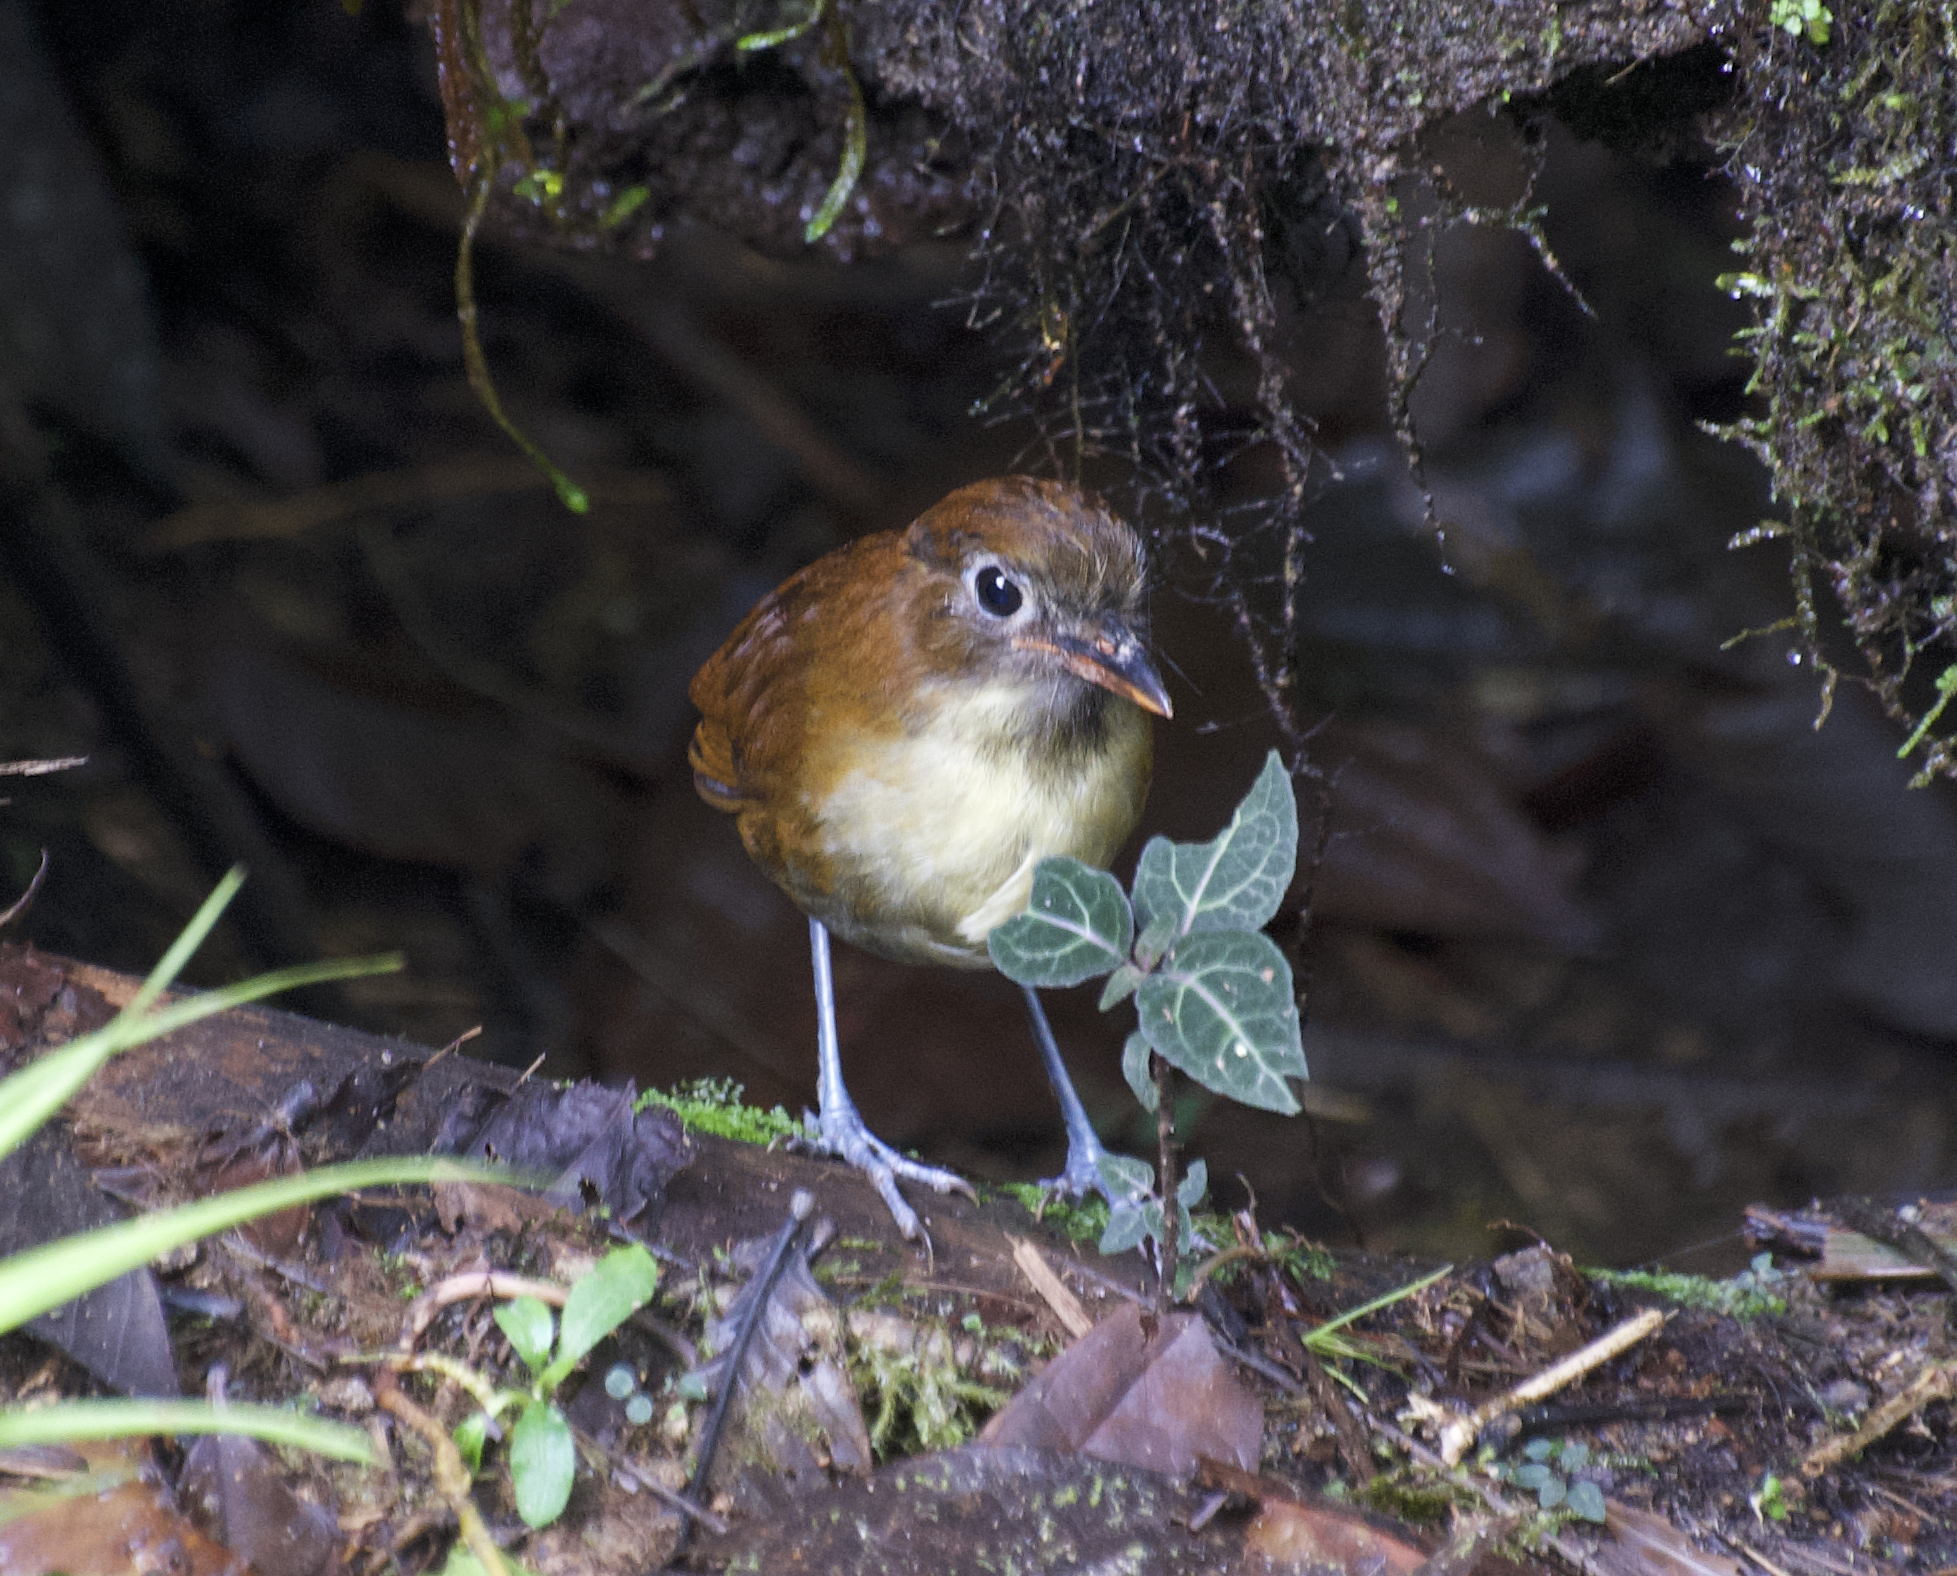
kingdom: Animalia
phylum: Chordata
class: Aves
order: Passeriformes
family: Grallariidae
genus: Grallaria
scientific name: Grallaria flavotincta
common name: Yellow-breasted antpitta
